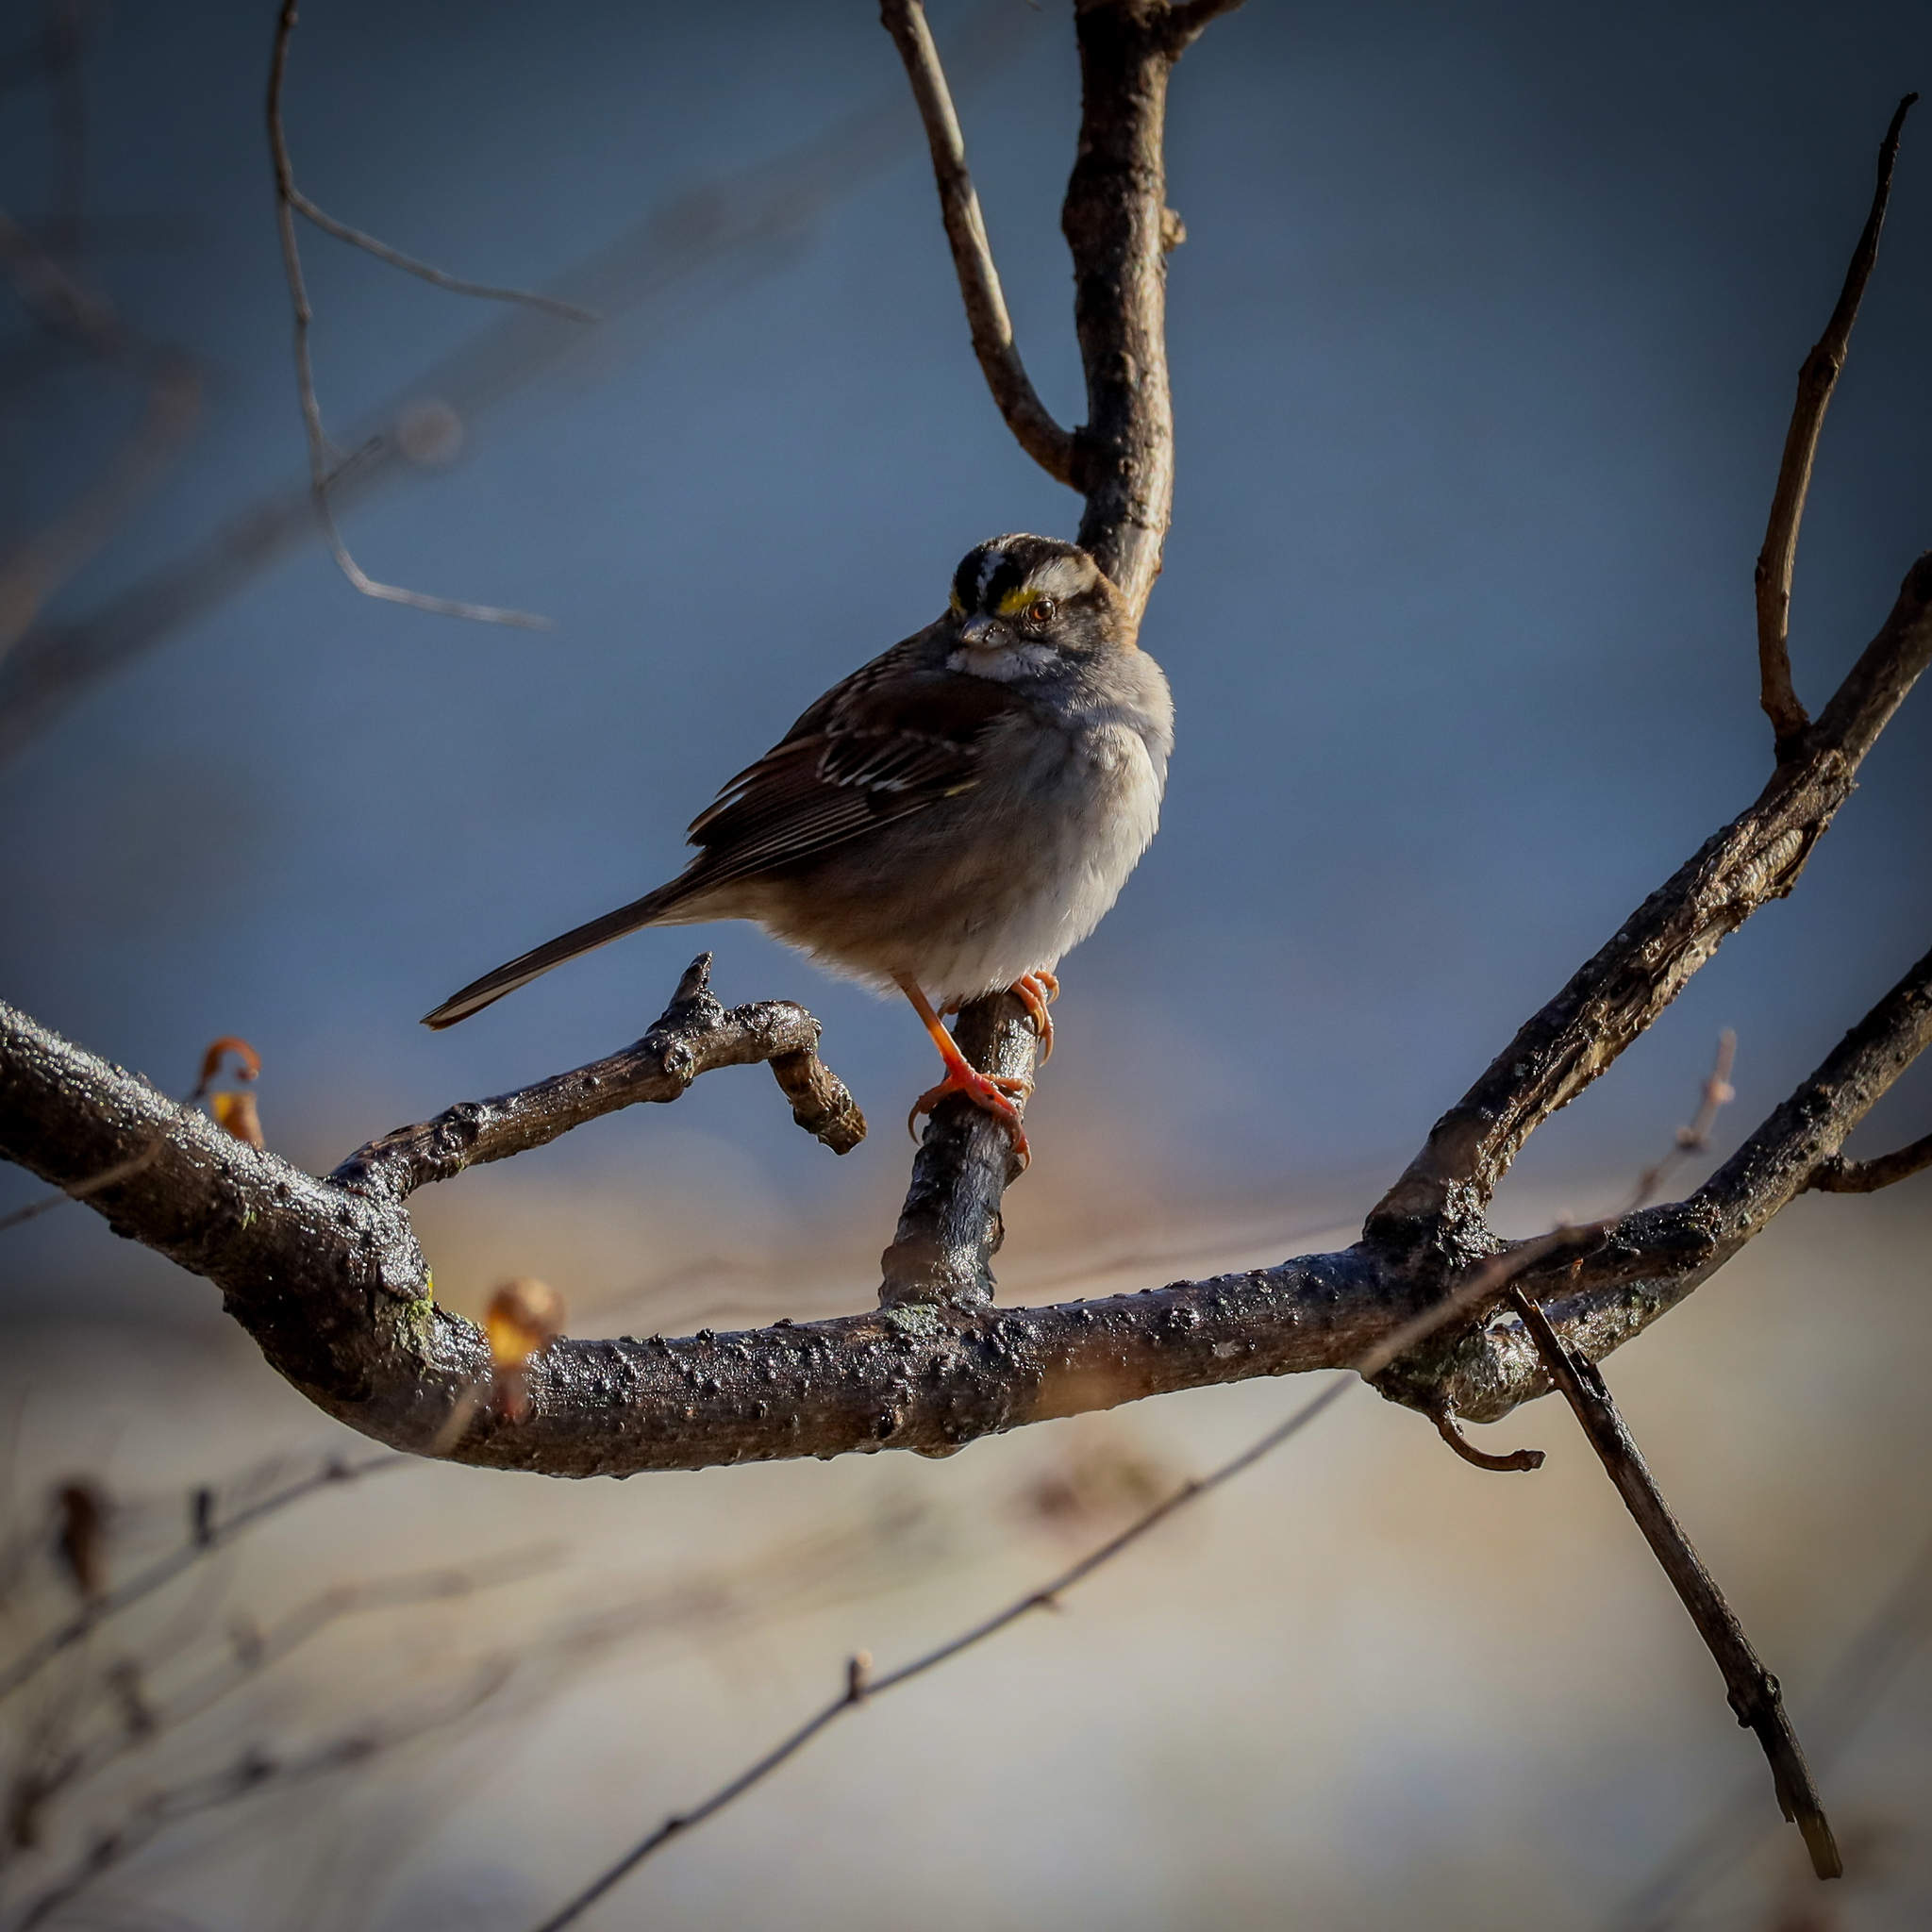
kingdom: Animalia
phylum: Chordata
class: Aves
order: Passeriformes
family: Passerellidae
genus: Zonotrichia
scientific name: Zonotrichia albicollis
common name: White-throated sparrow
